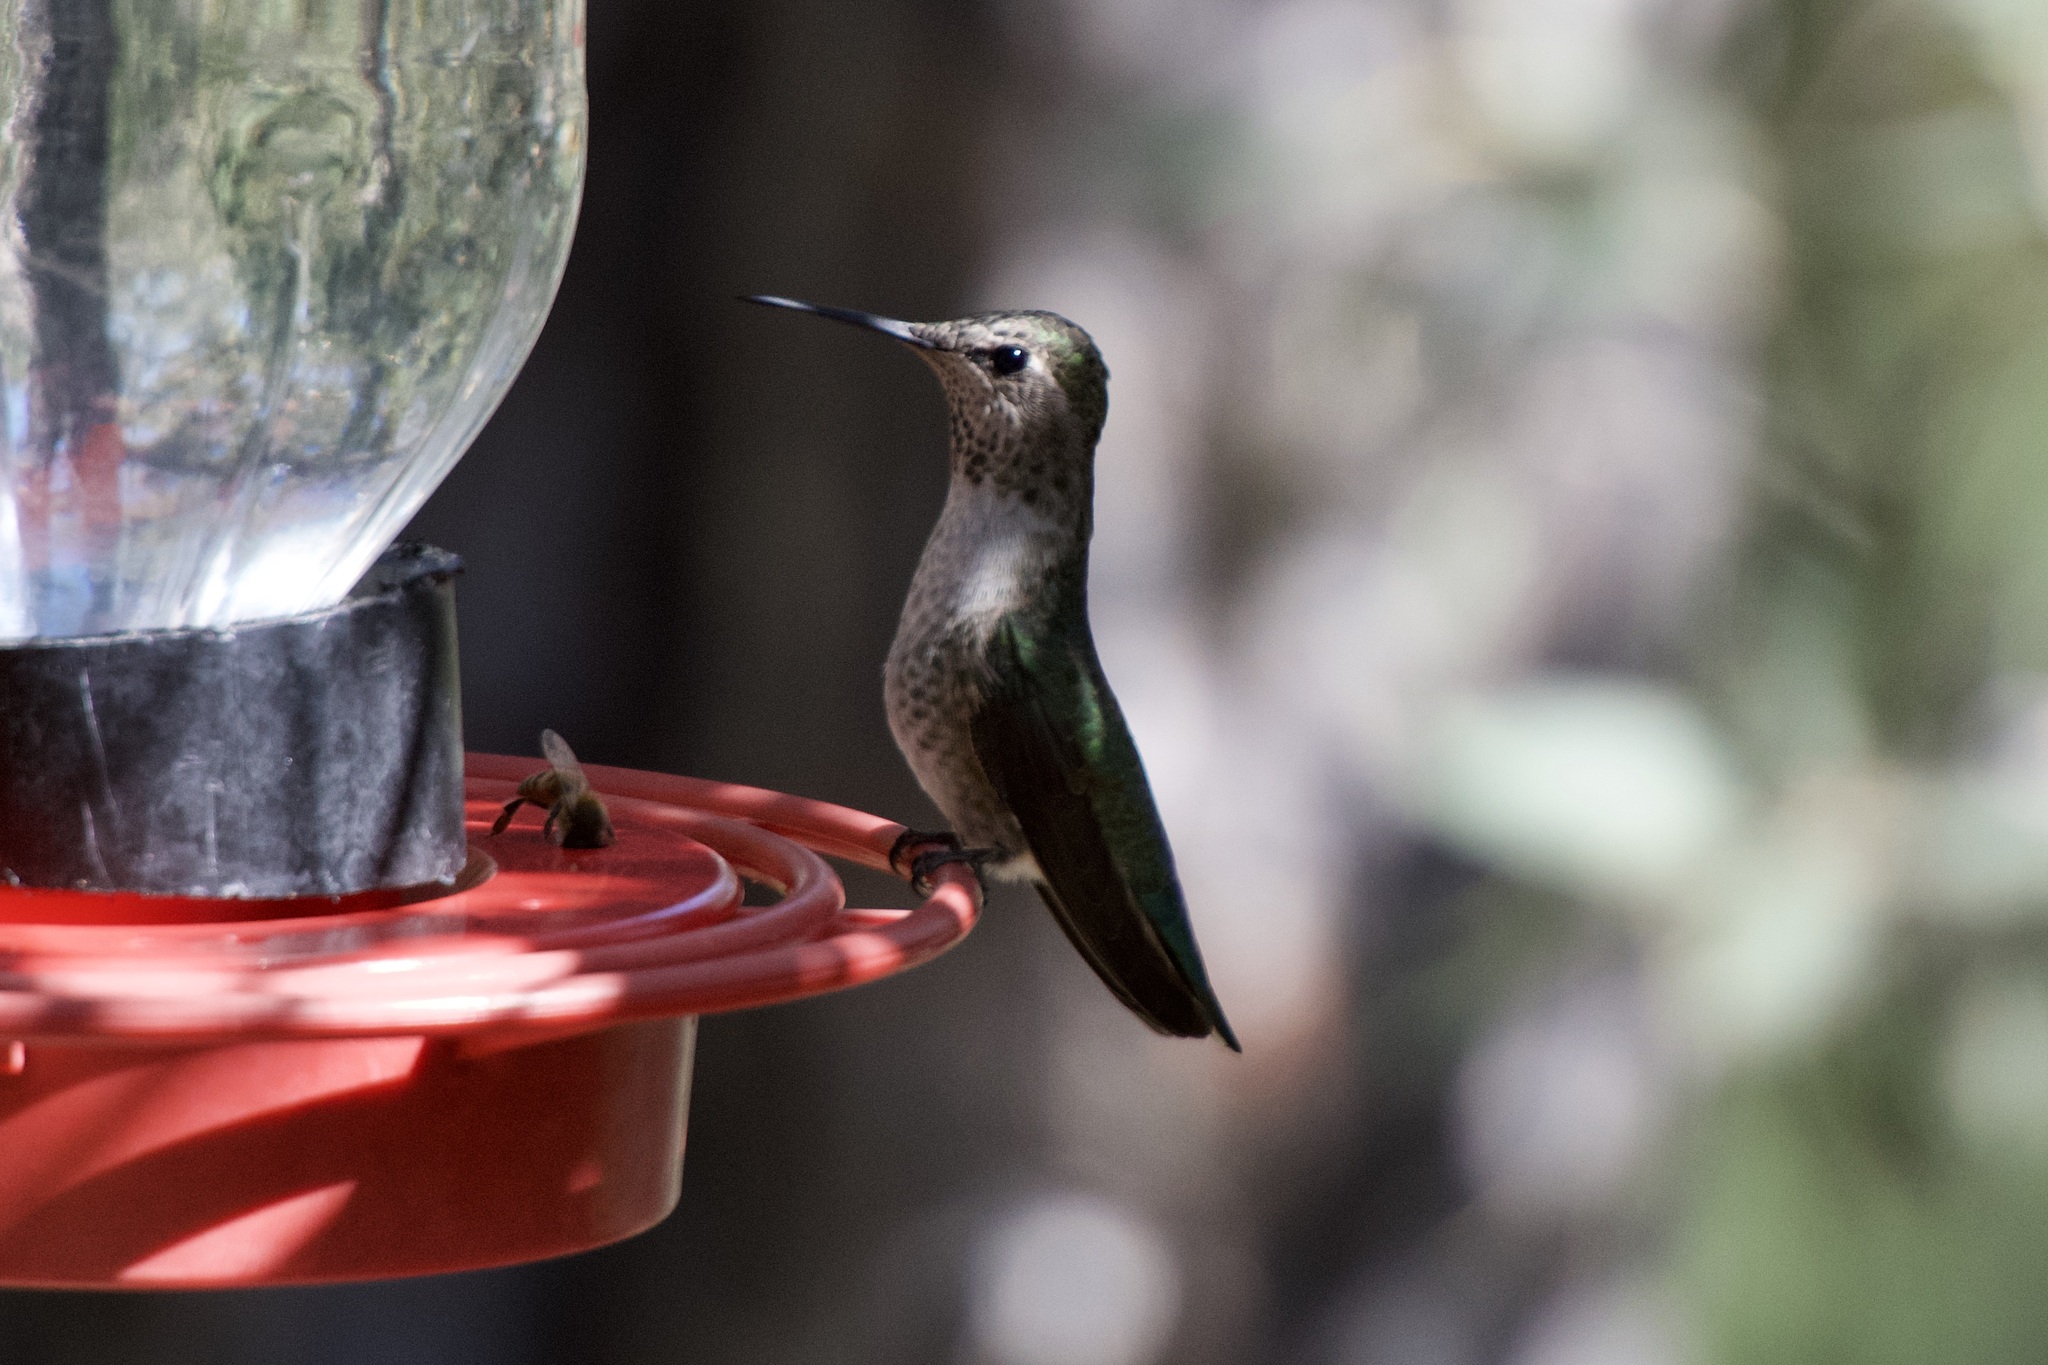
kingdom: Animalia
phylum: Chordata
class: Aves
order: Apodiformes
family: Trochilidae
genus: Calypte
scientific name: Calypte anna
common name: Anna's hummingbird
